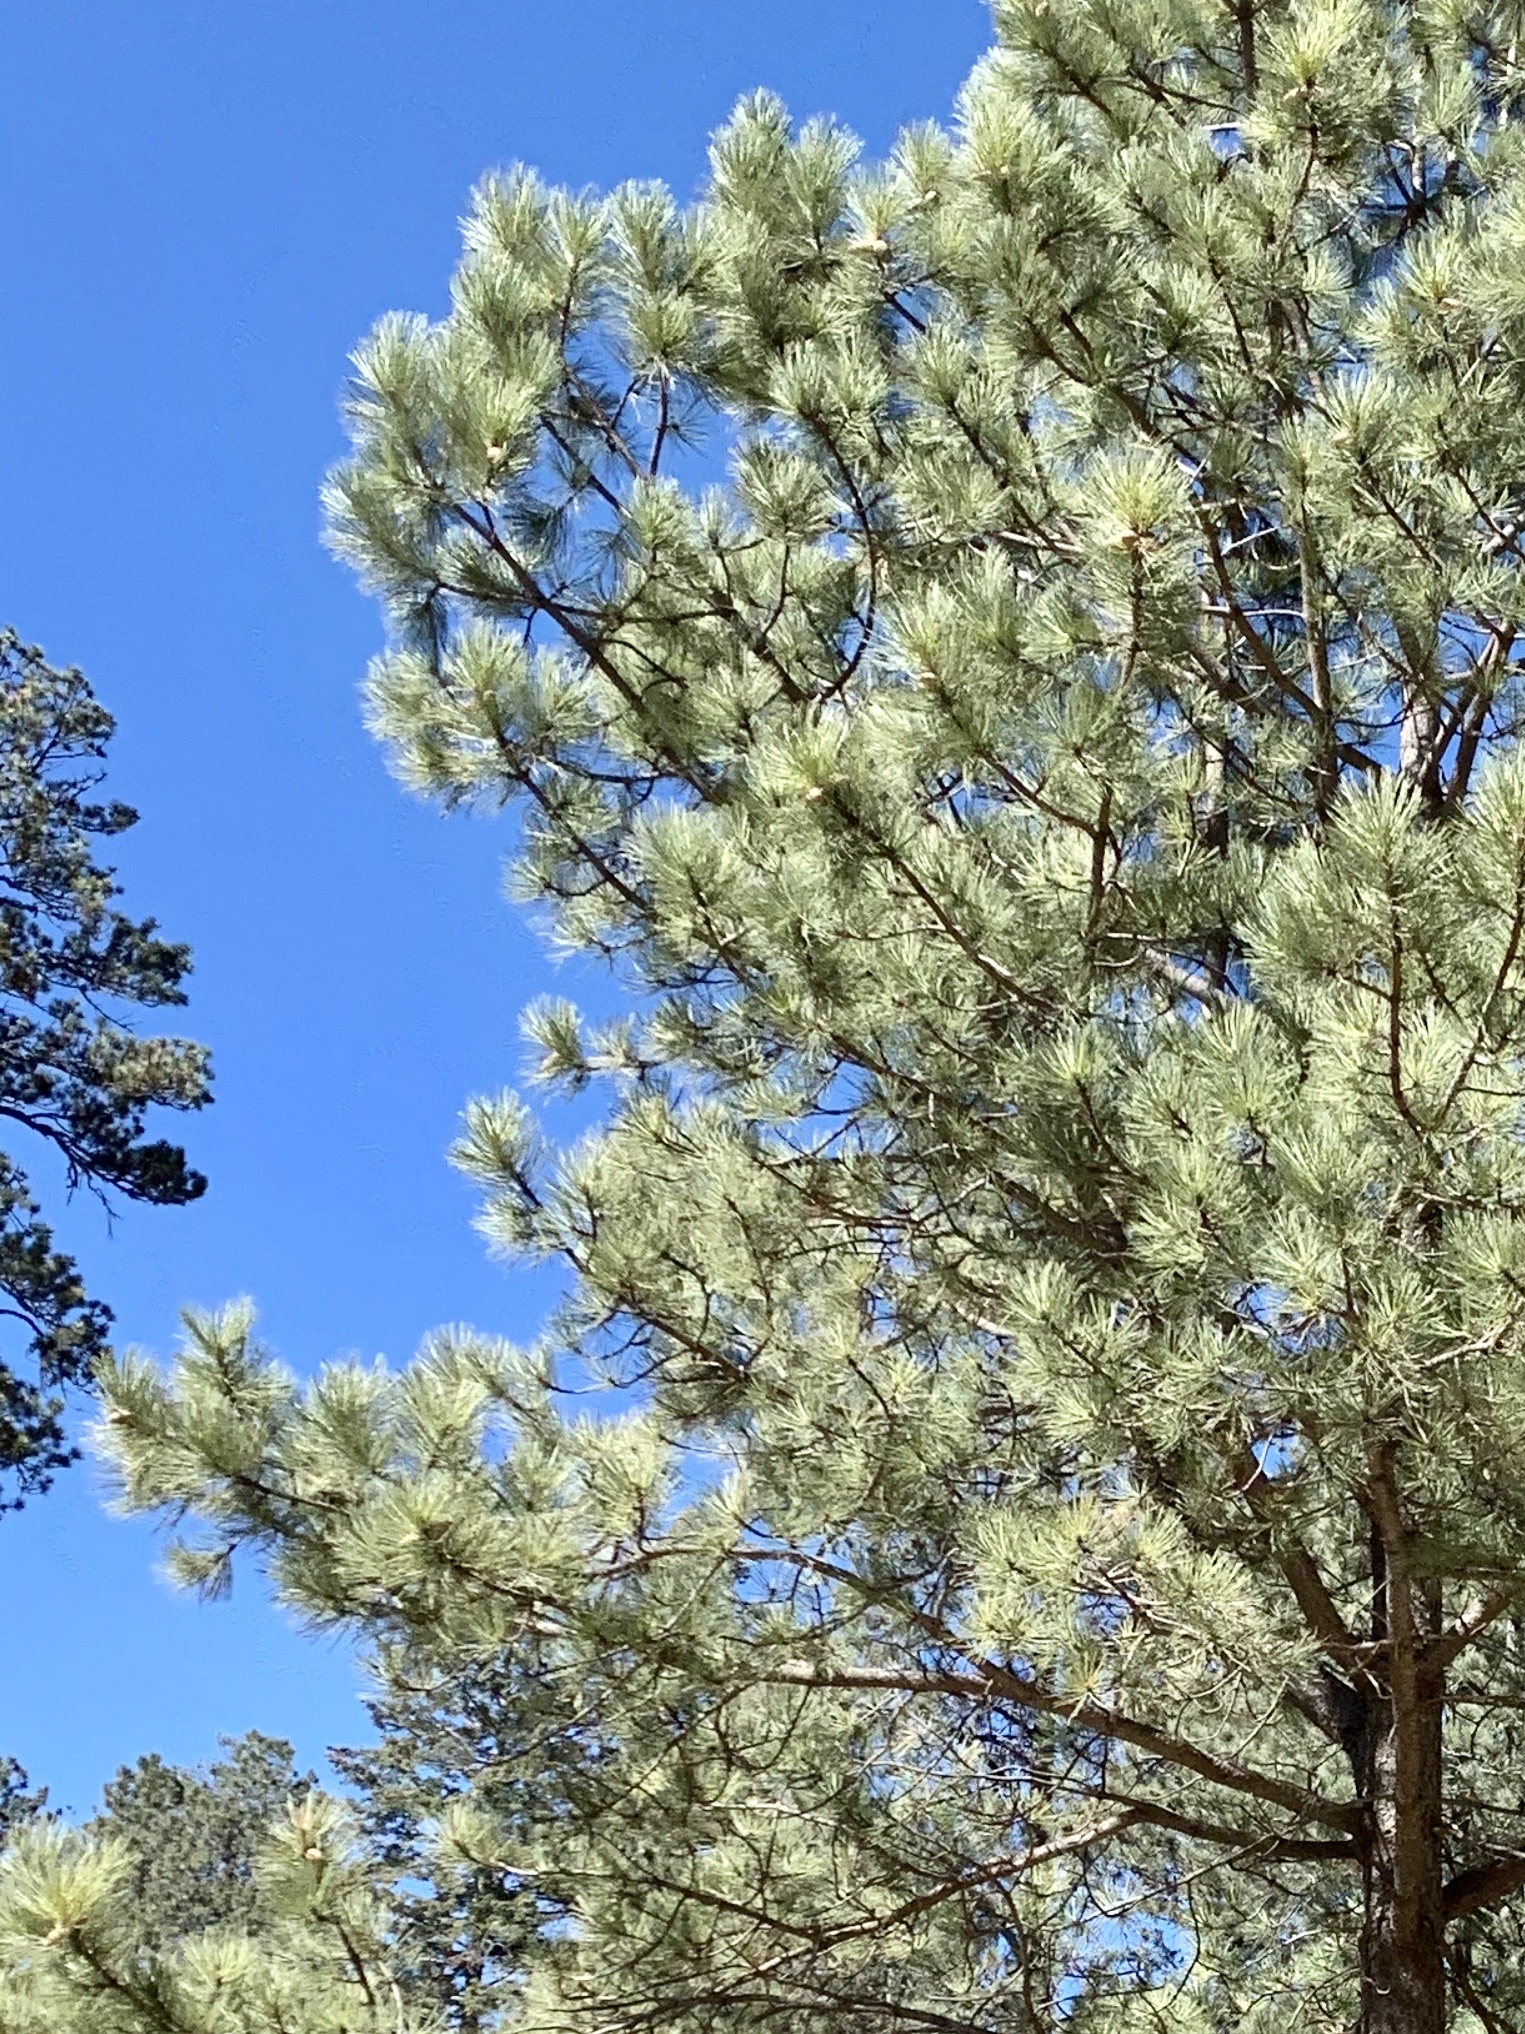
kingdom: Plantae
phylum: Tracheophyta
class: Pinopsida
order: Pinales
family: Pinaceae
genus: Pinus
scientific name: Pinus ponderosa
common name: Western yellow-pine
